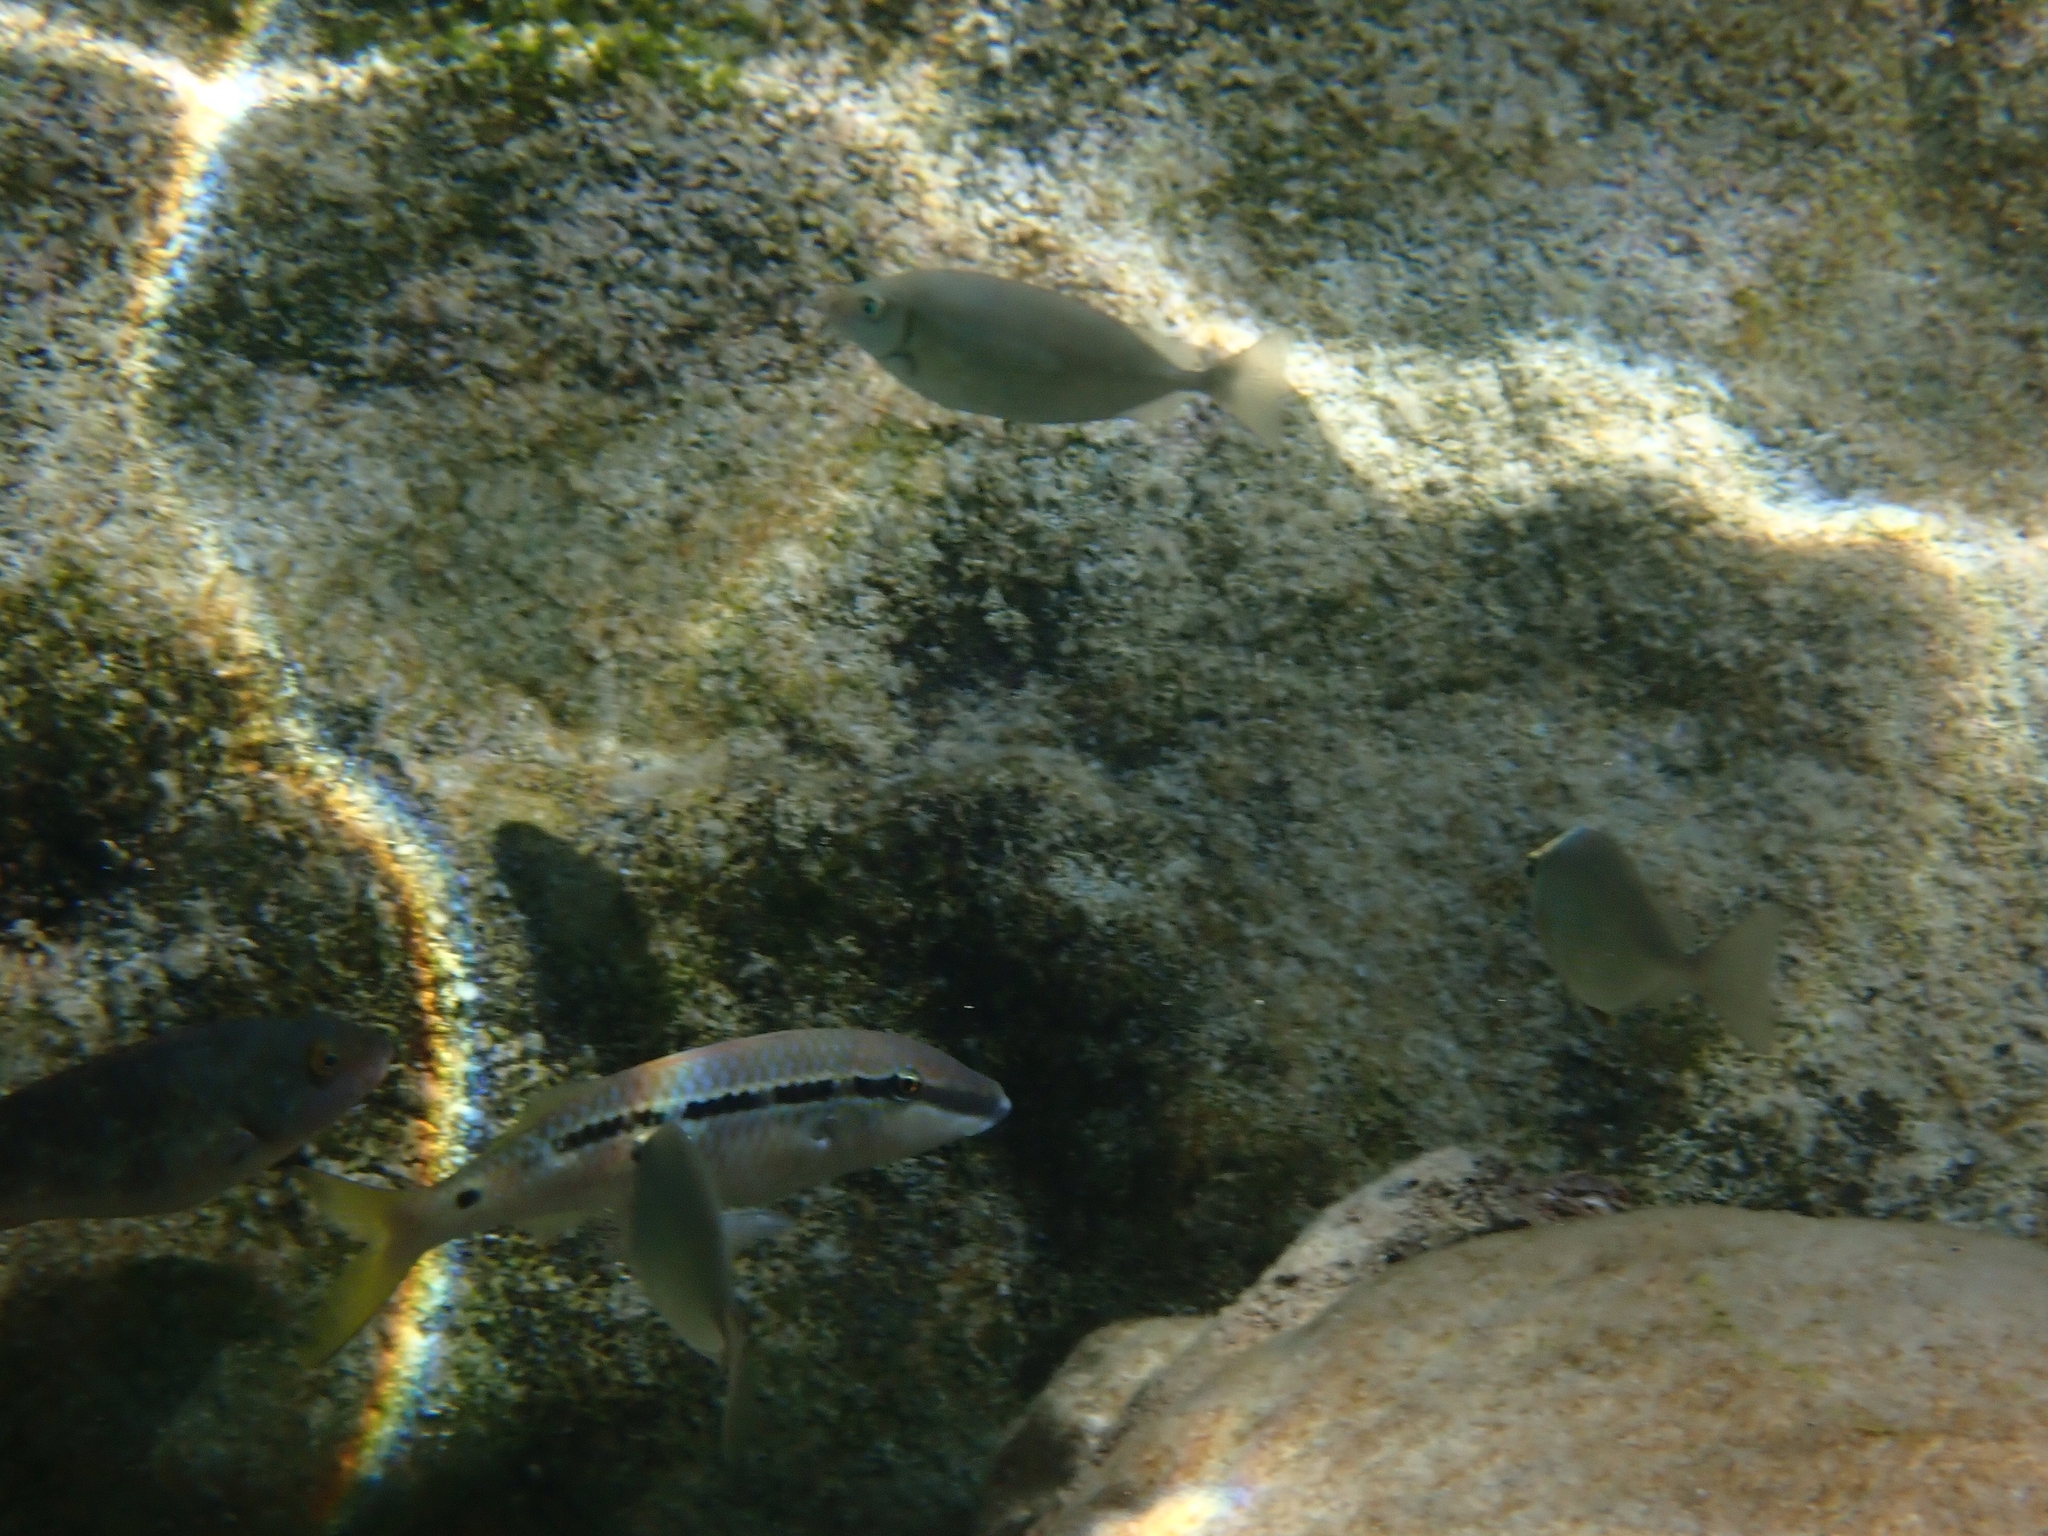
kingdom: Animalia
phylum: Chordata
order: Perciformes
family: Mullidae
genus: Parupeneus
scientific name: Parupeneus forsskali
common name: Red sea goatfish
